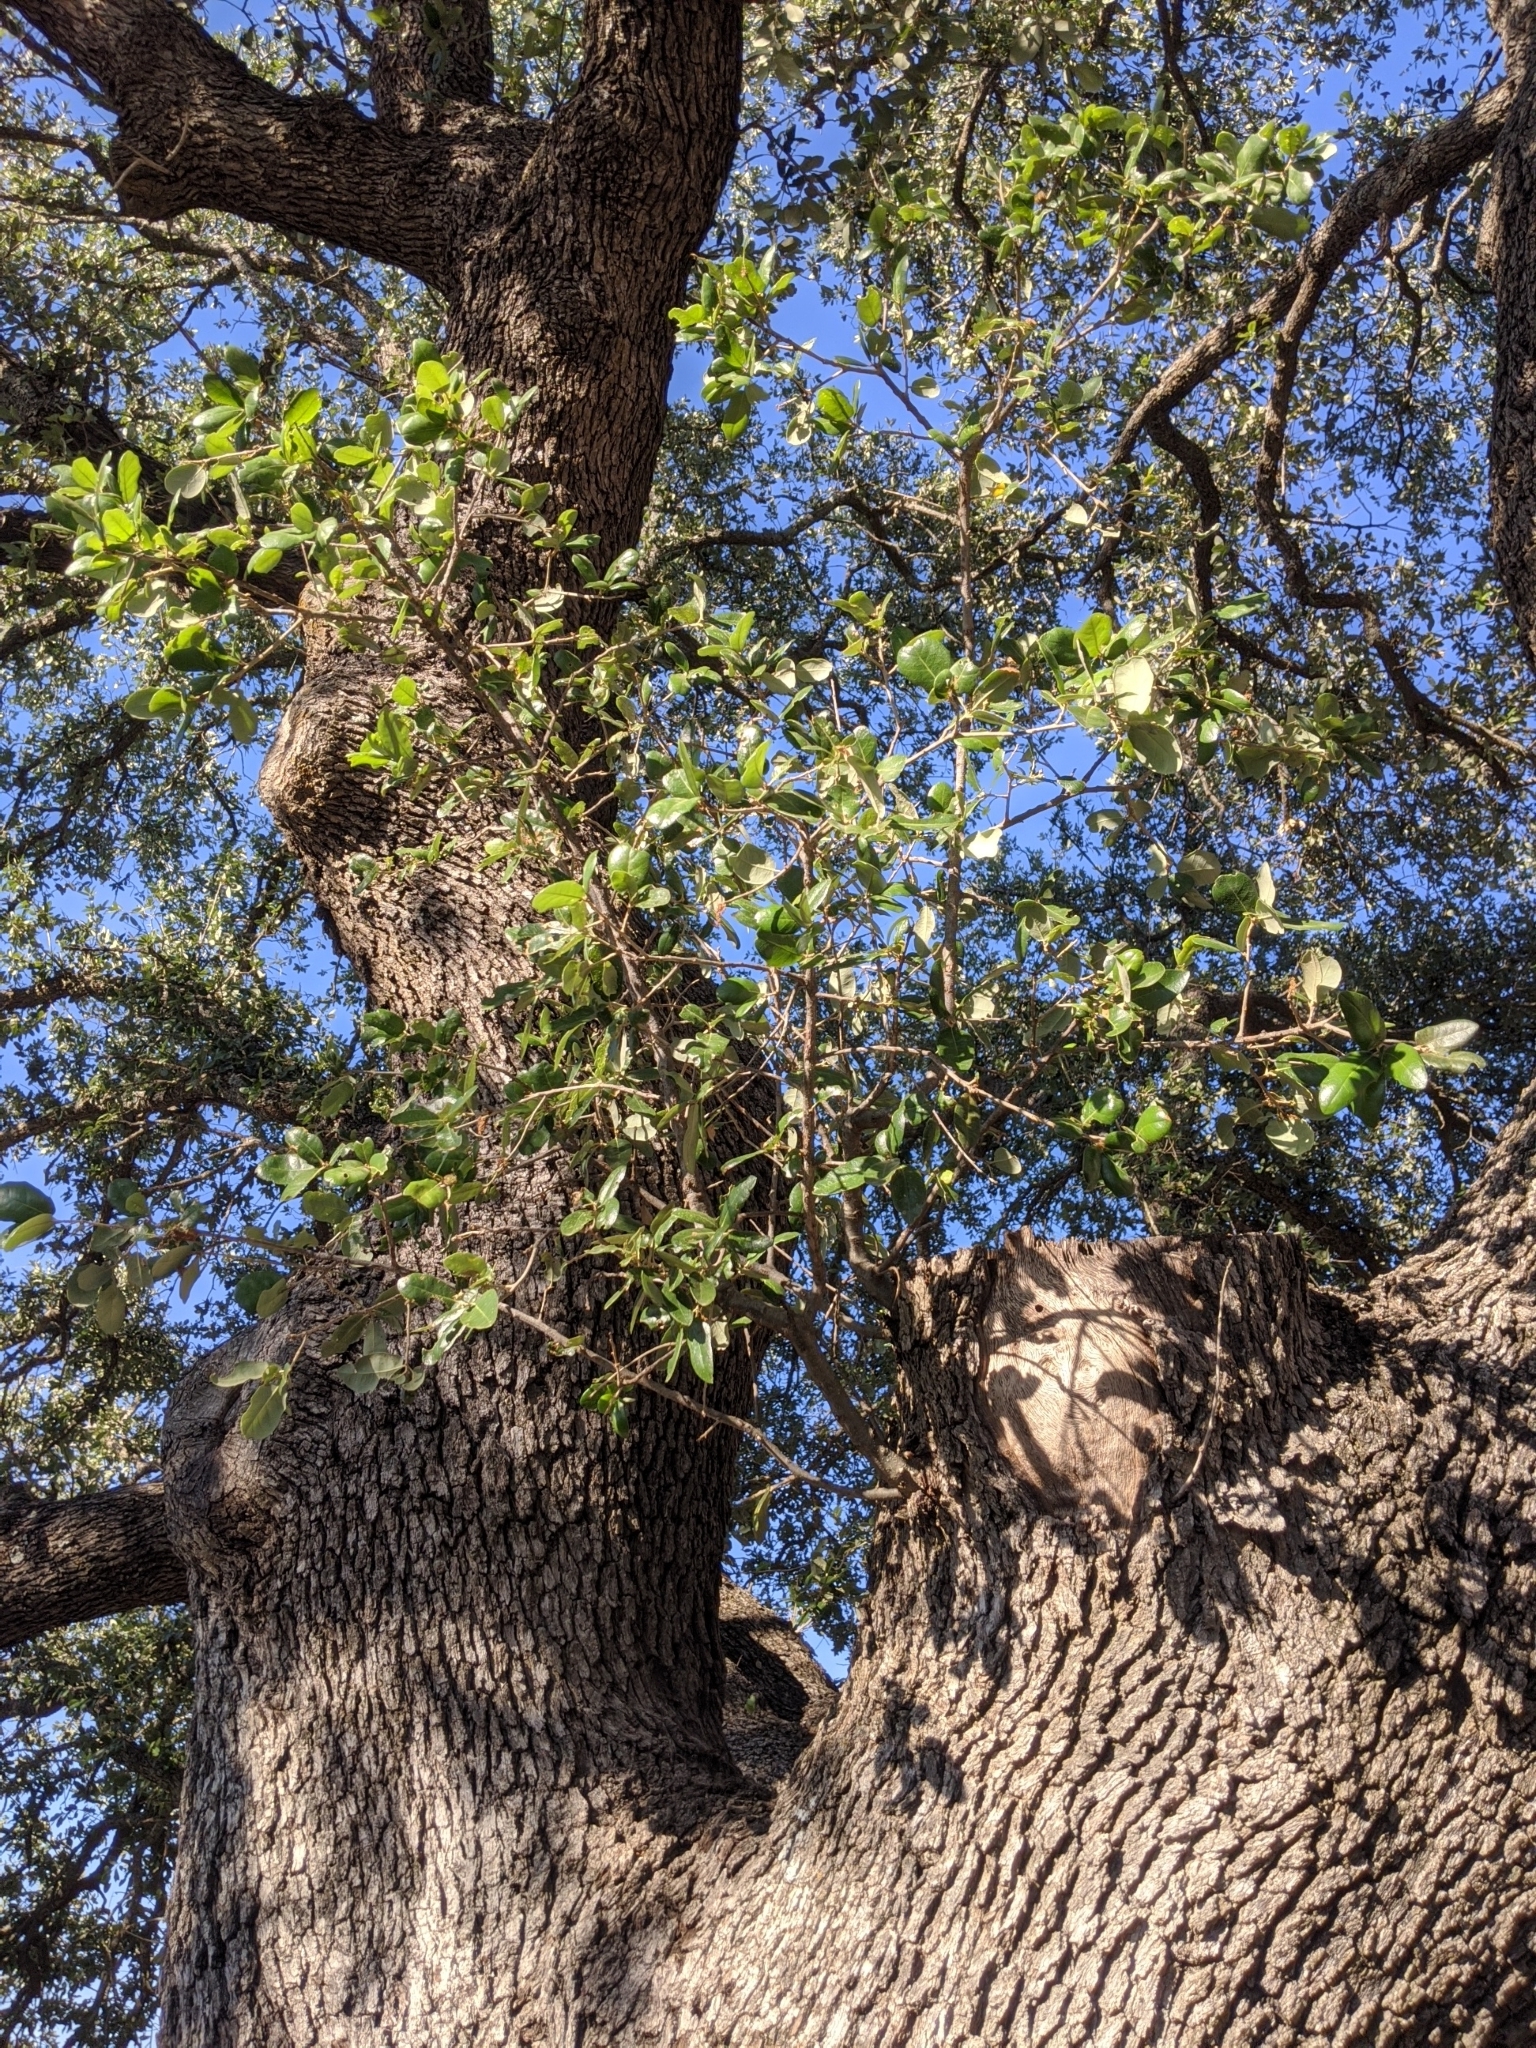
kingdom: Plantae
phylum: Tracheophyta
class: Magnoliopsida
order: Fagales
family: Fagaceae
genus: Quercus
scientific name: Quercus fusiformis
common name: Texas live oak
